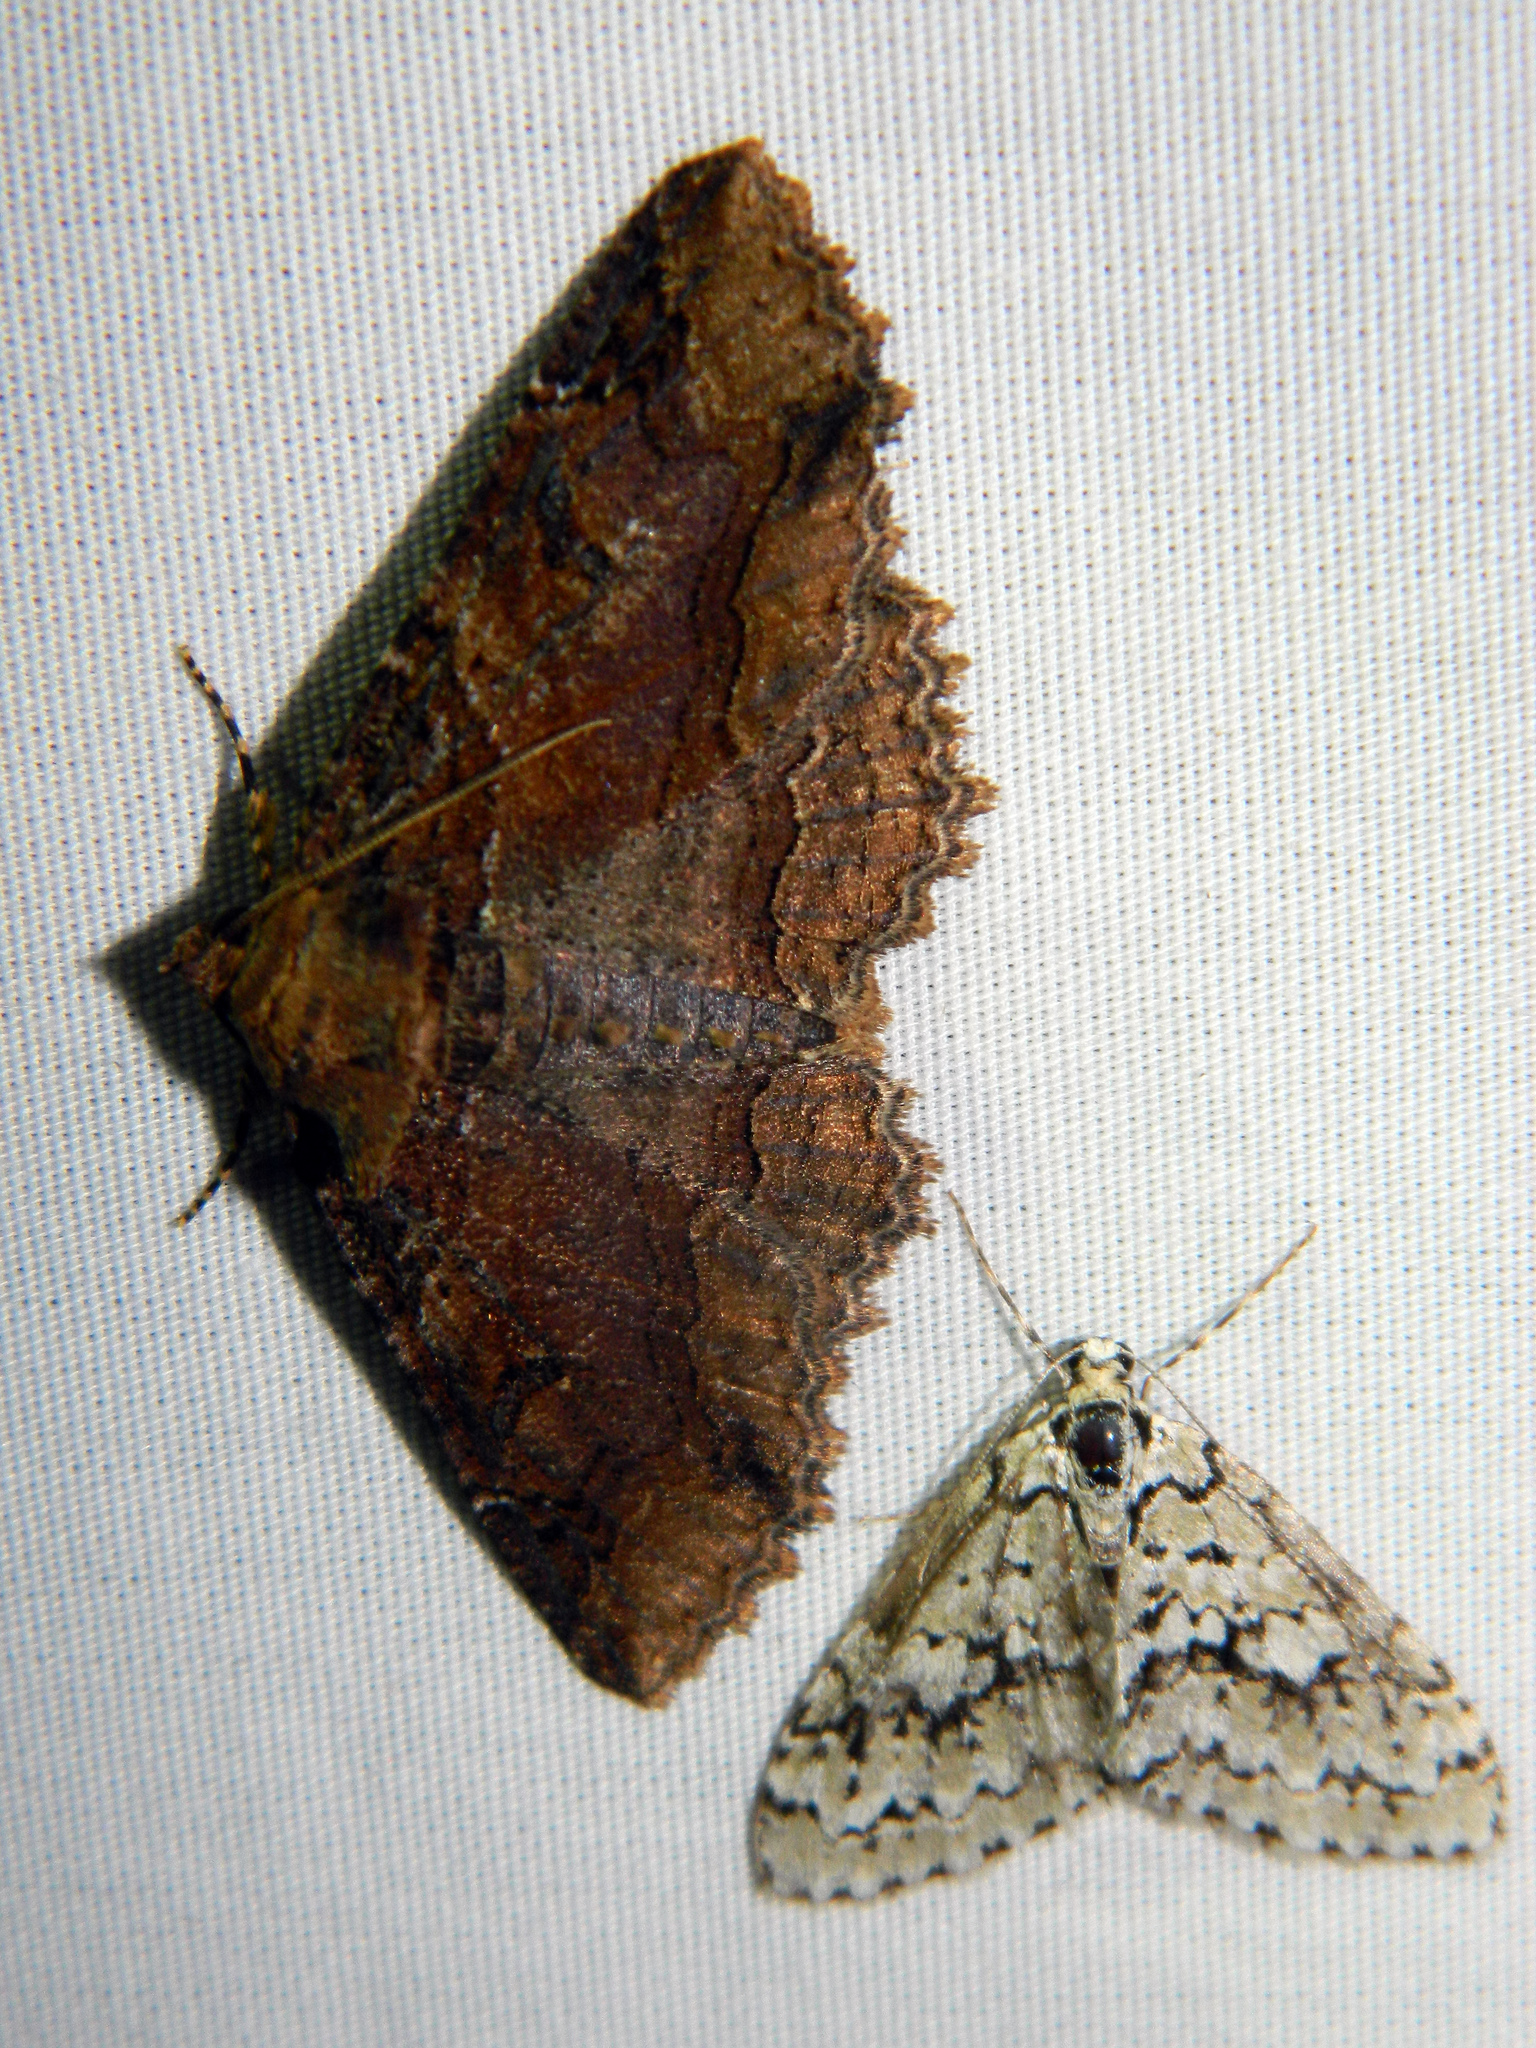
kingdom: Animalia
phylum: Arthropoda
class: Insecta
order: Lepidoptera
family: Erebidae
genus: Zale
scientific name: Zale minerea
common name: Colorful zale moth
